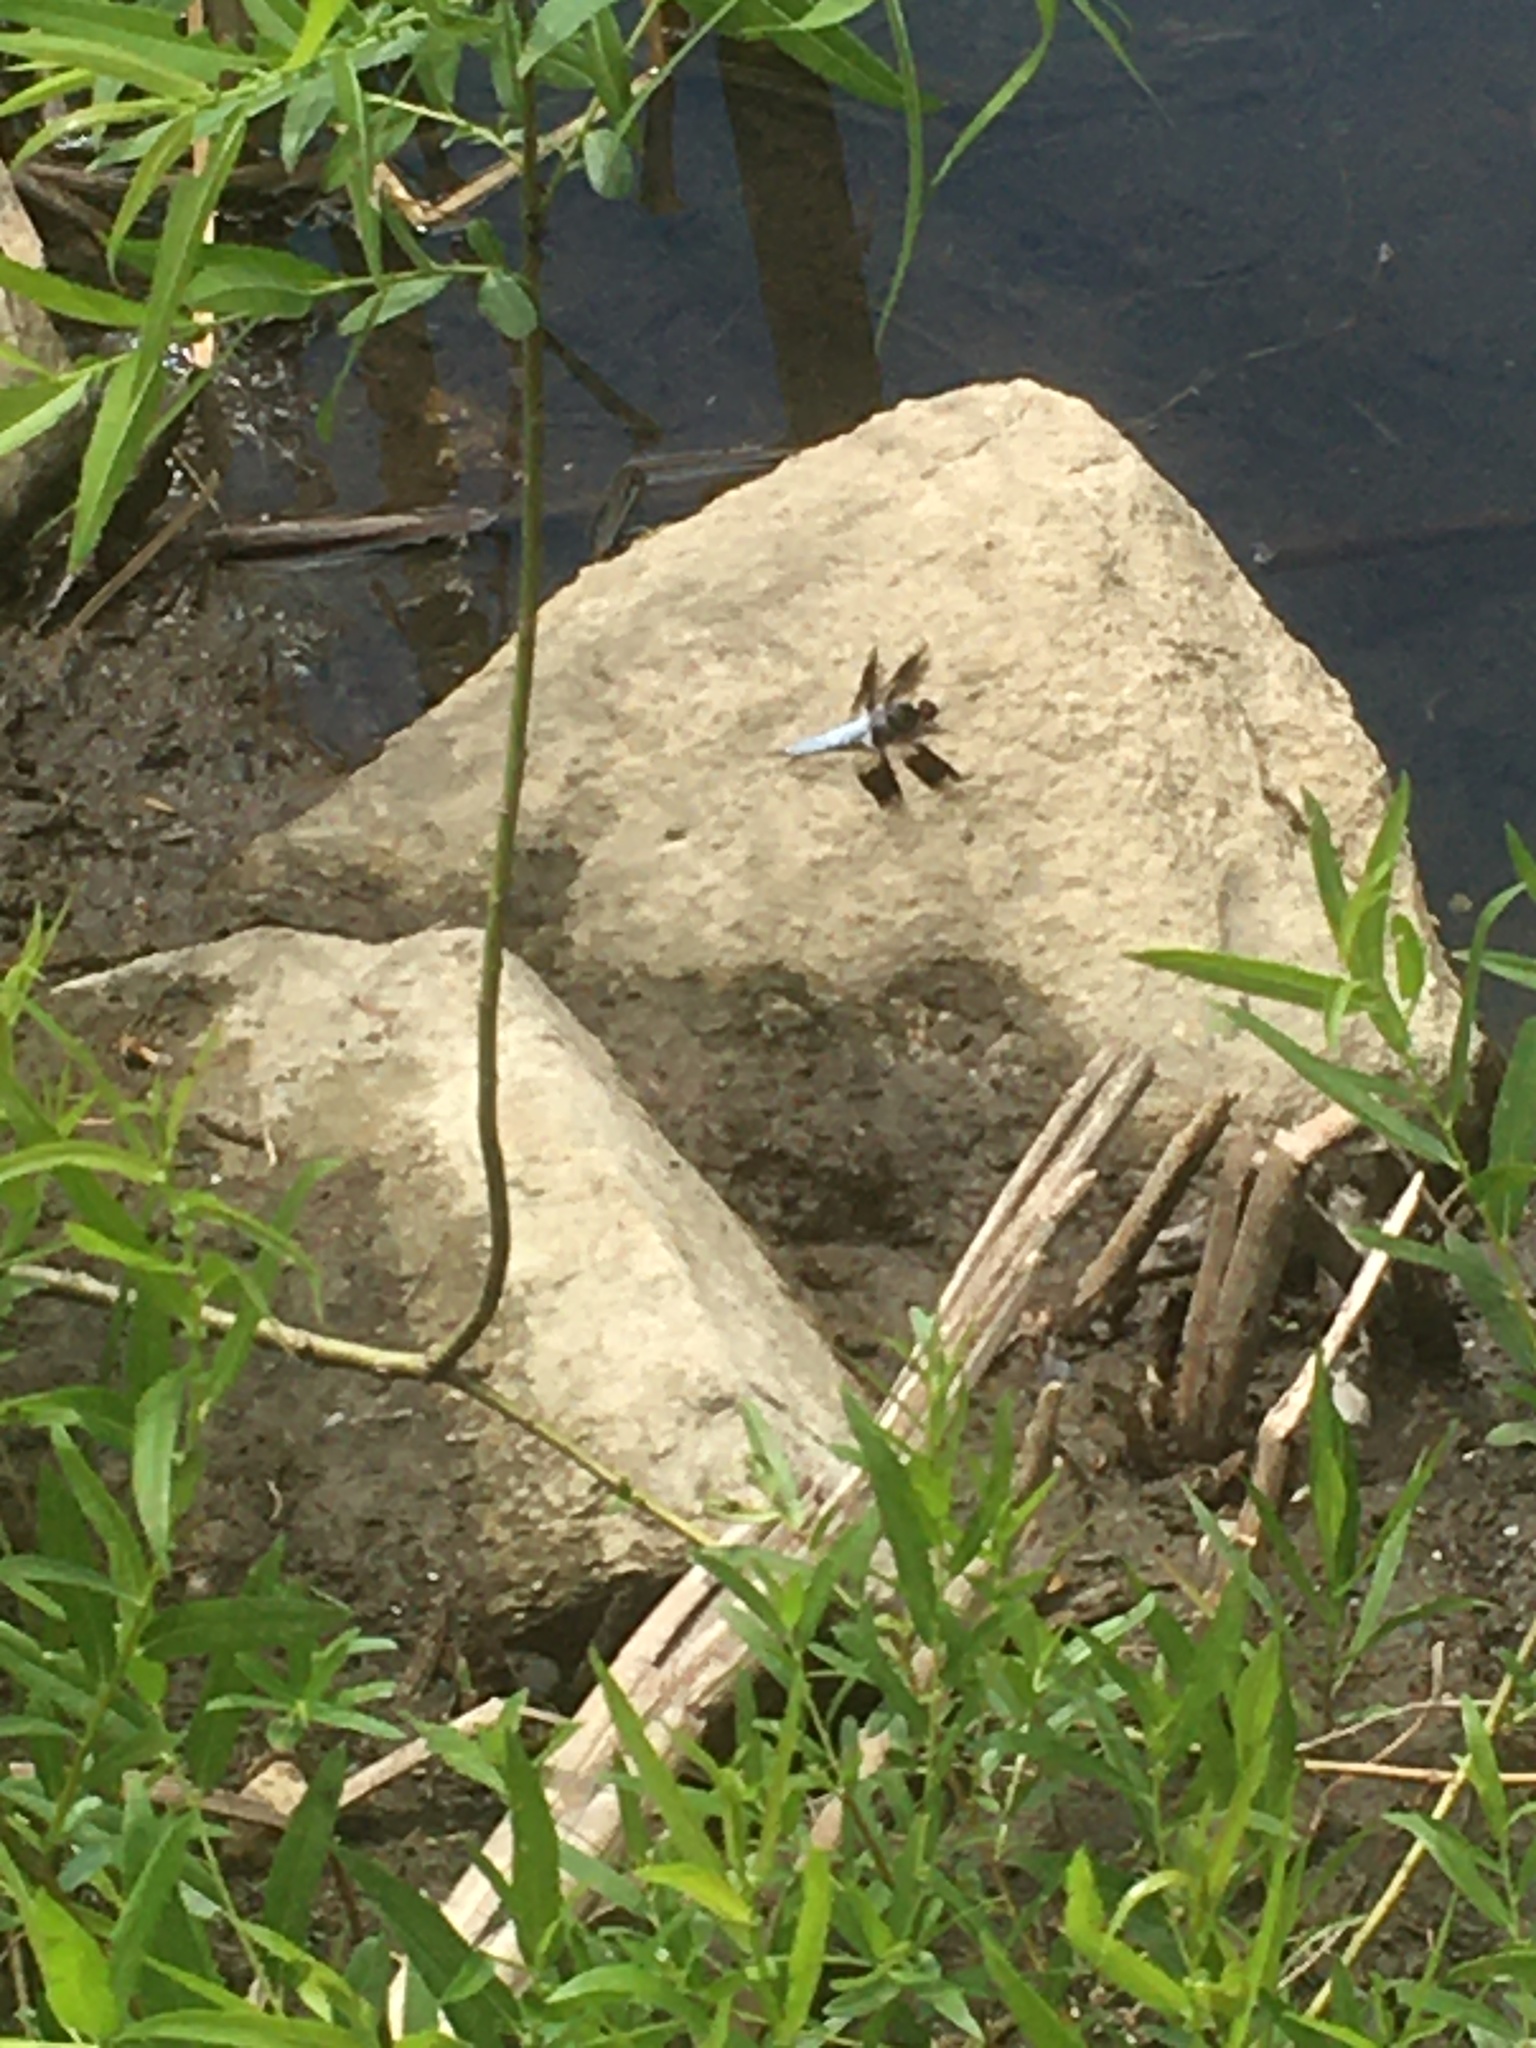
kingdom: Animalia
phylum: Arthropoda
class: Insecta
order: Odonata
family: Libellulidae
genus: Plathemis
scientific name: Plathemis lydia
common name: Common whitetail
